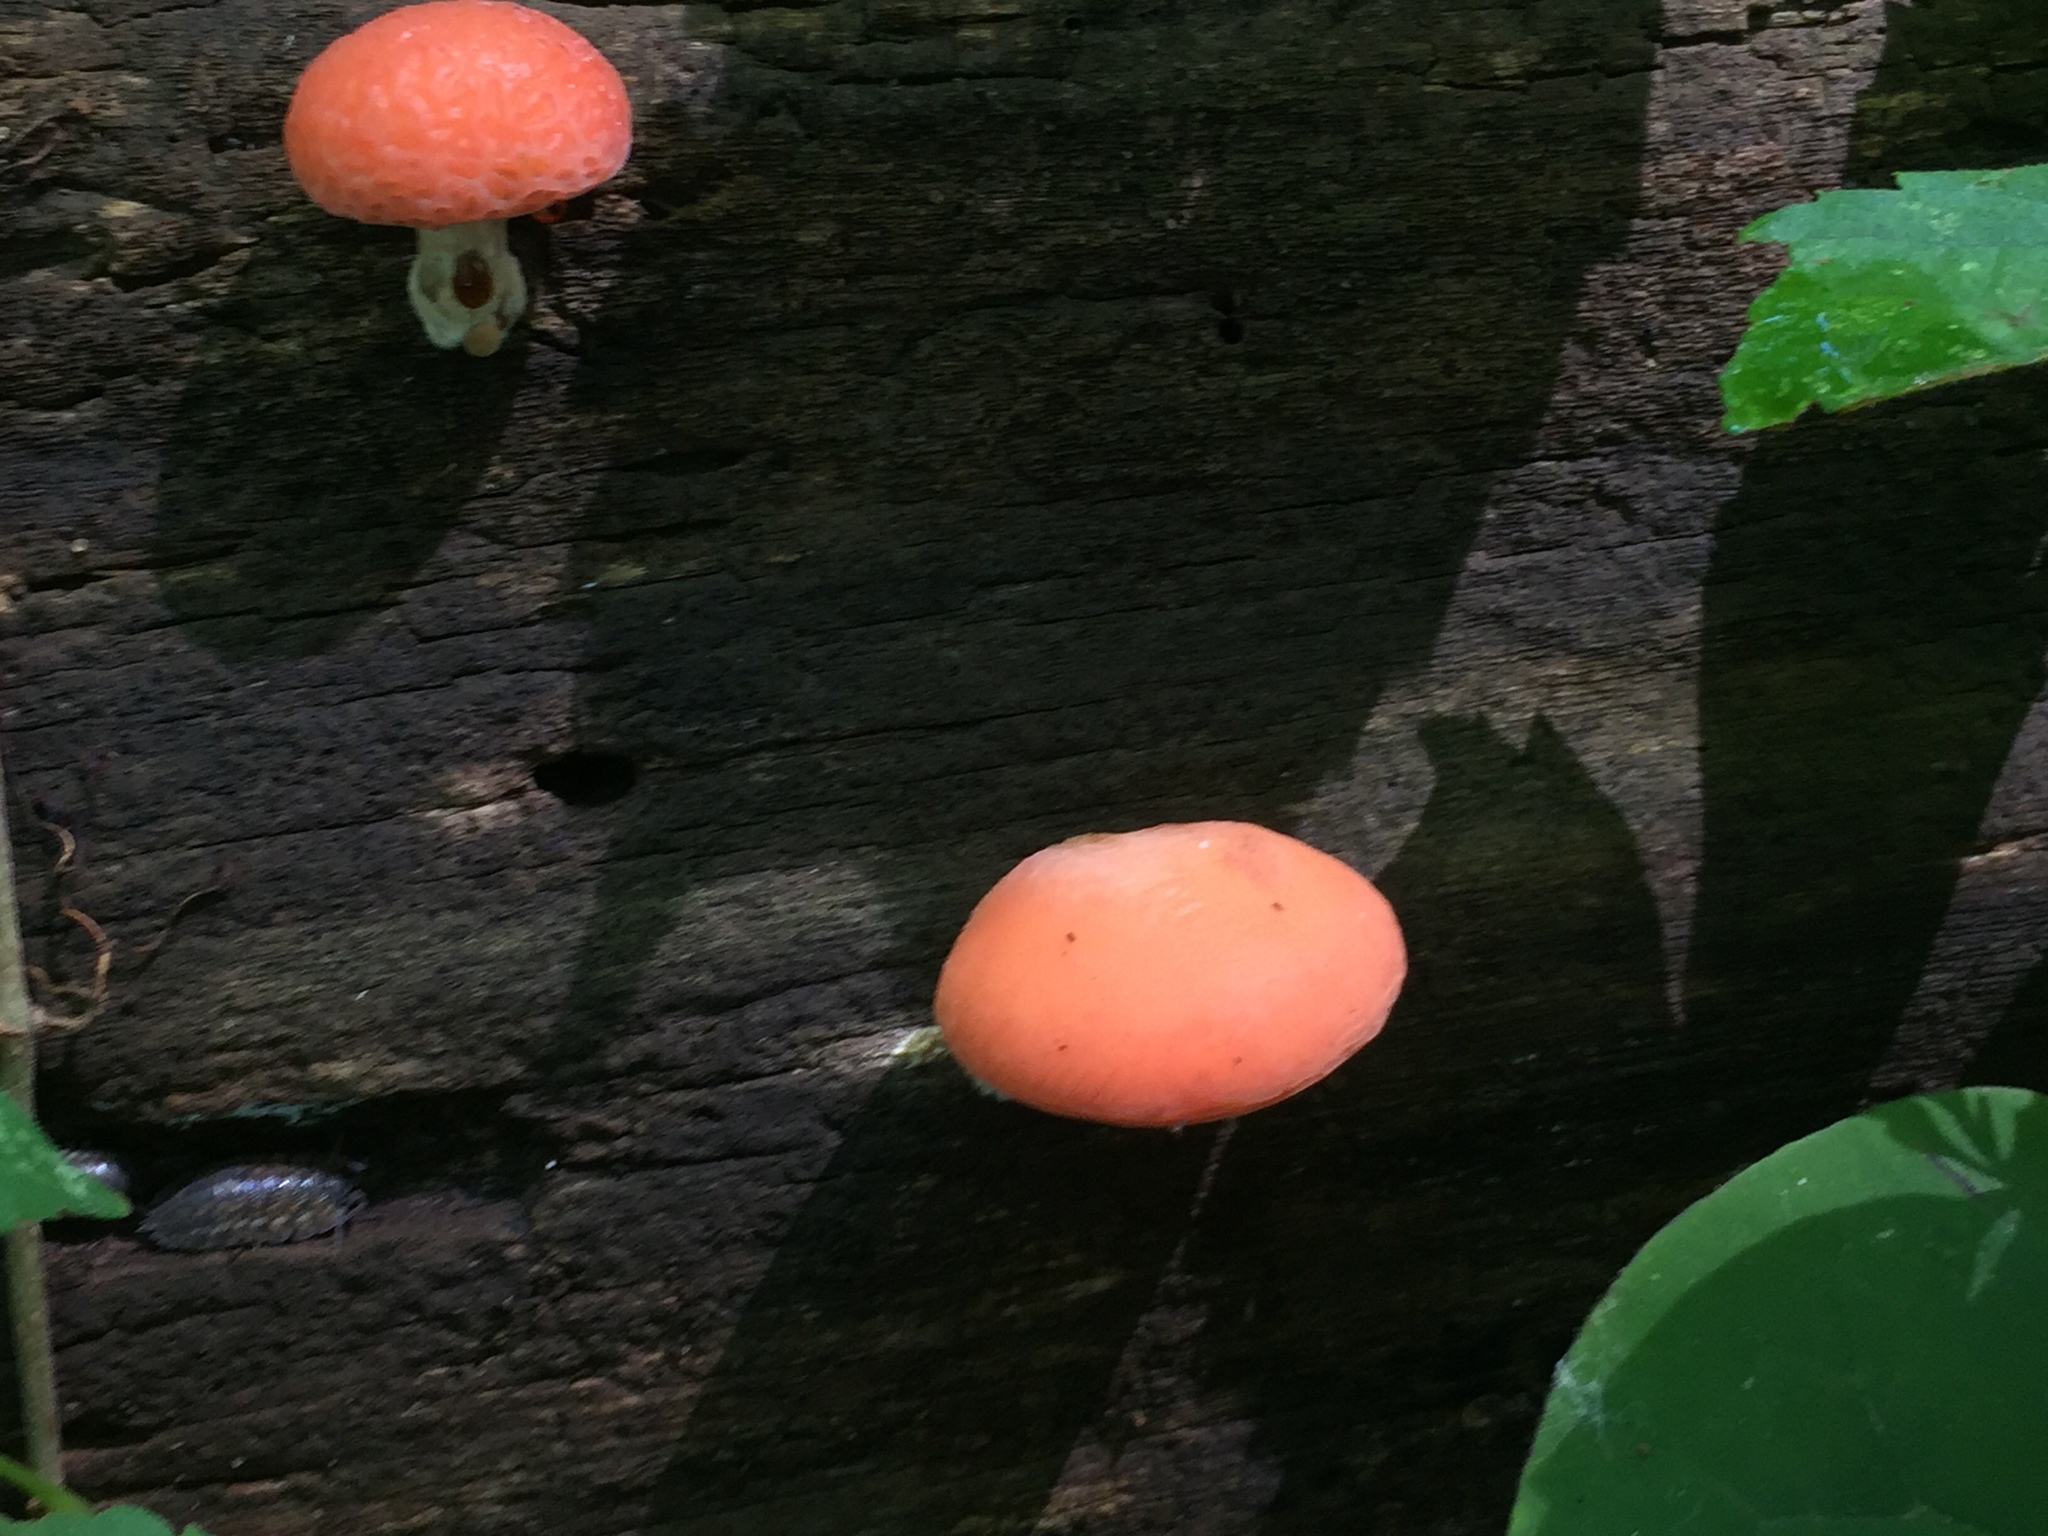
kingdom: Fungi
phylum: Basidiomycota
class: Agaricomycetes
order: Agaricales
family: Physalacriaceae
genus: Rhodotus
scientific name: Rhodotus palmatus
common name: Wrinkled peach
